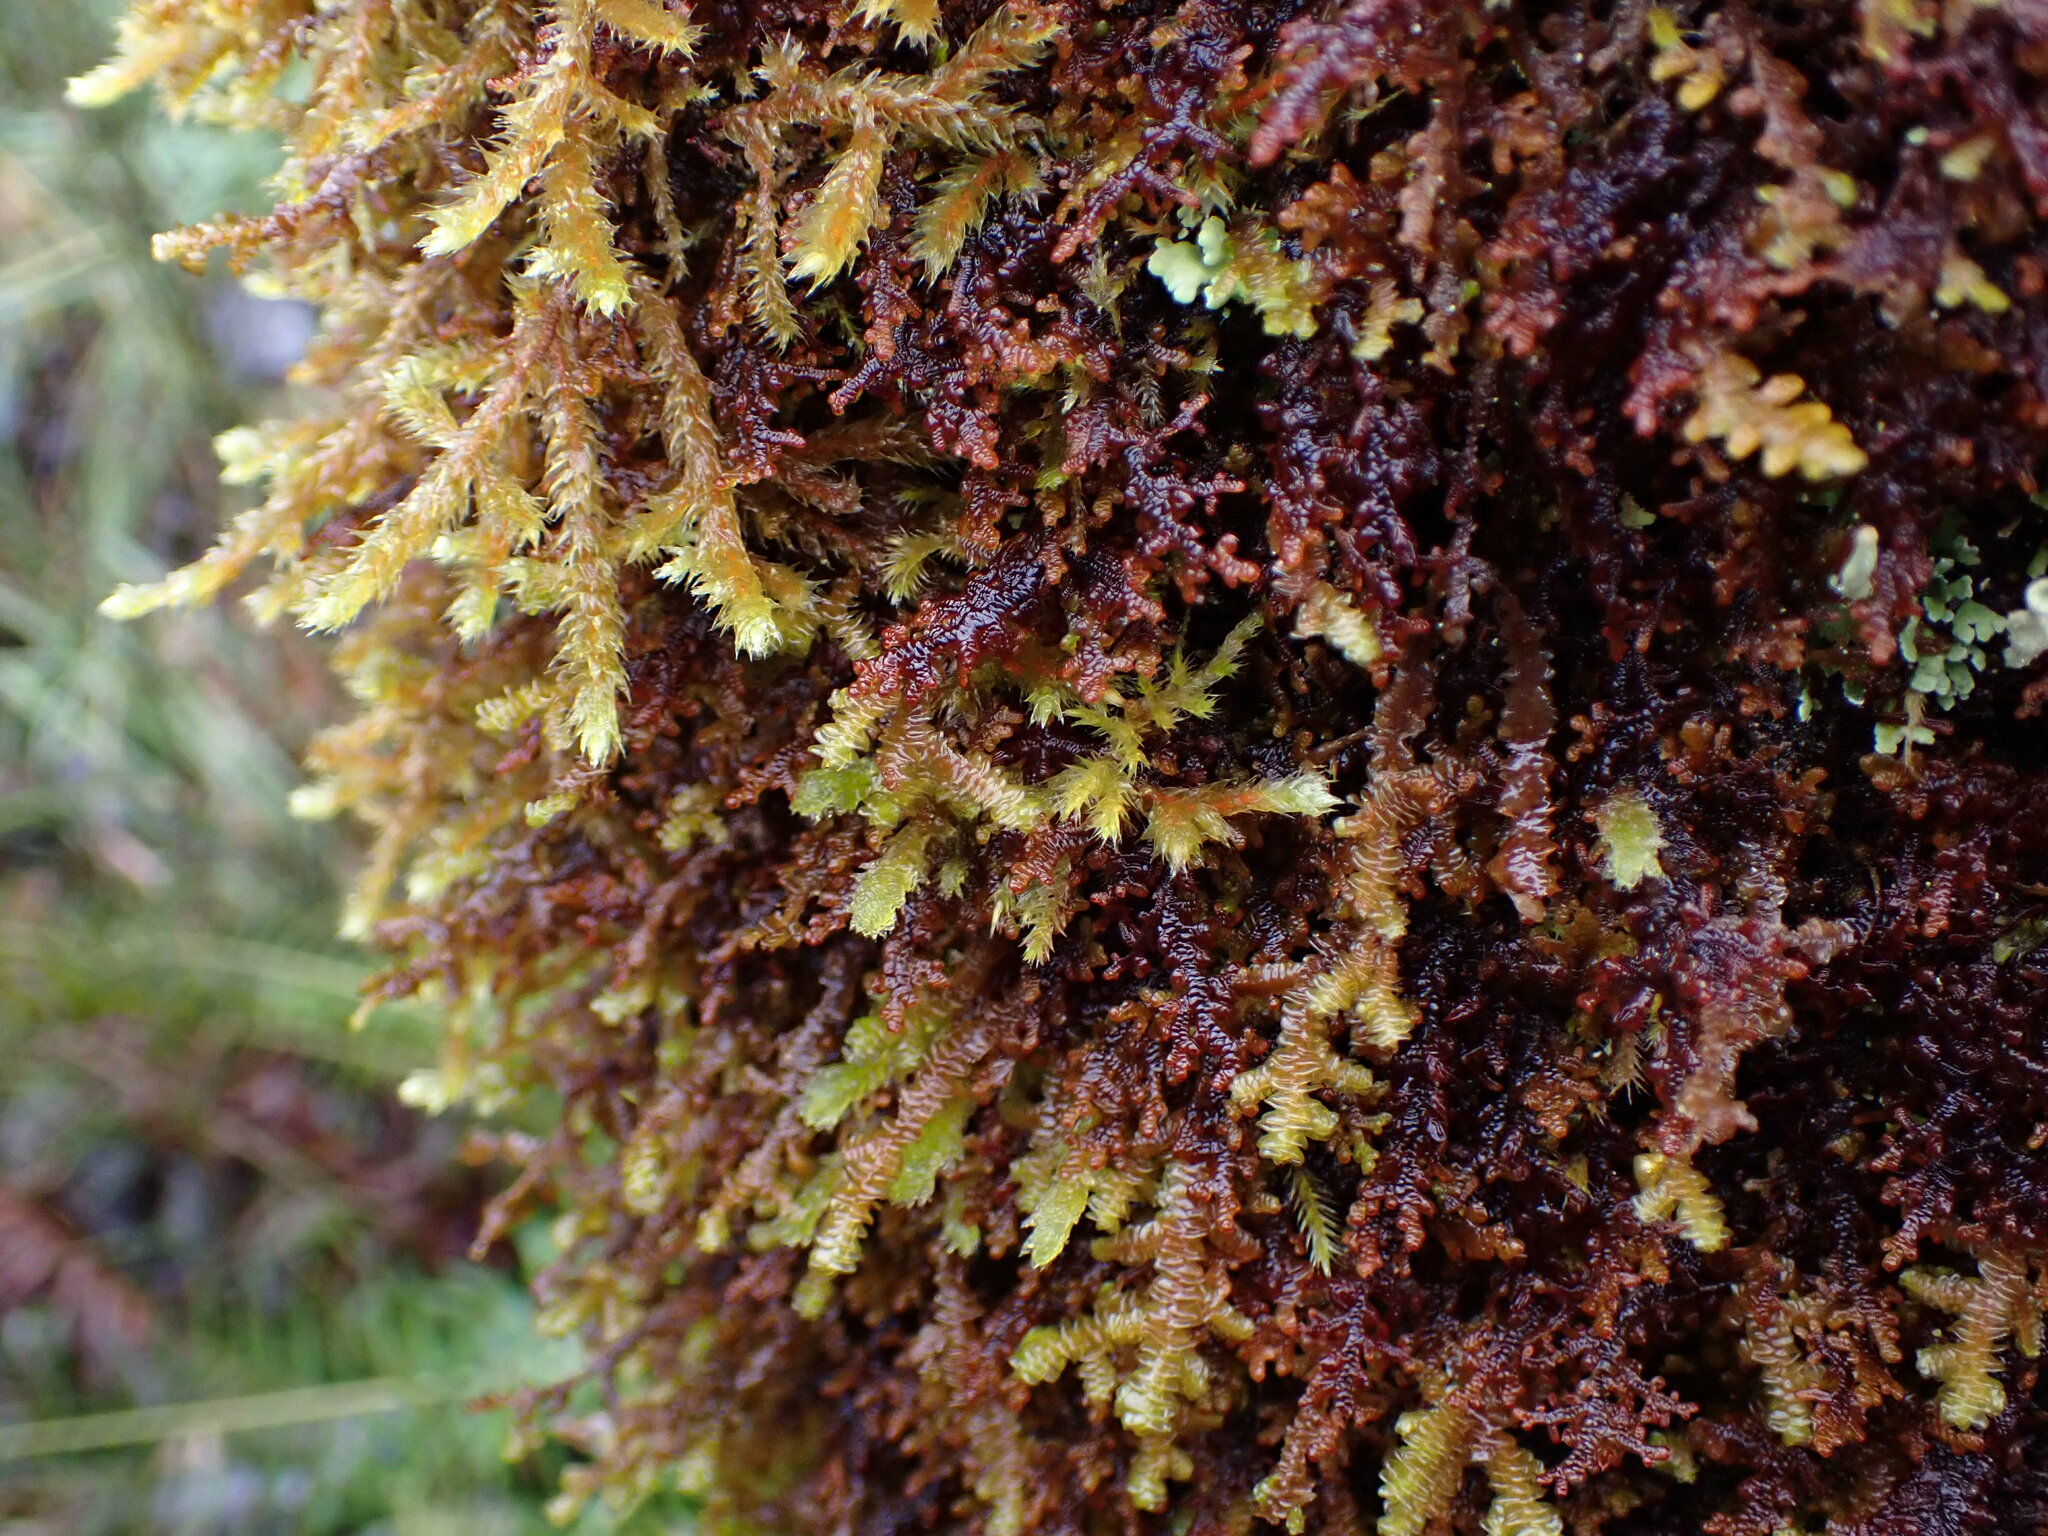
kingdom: Plantae
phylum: Marchantiophyta
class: Jungermanniopsida
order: Porellales
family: Frullaniaceae
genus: Frullania
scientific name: Frullania nisquallensis
